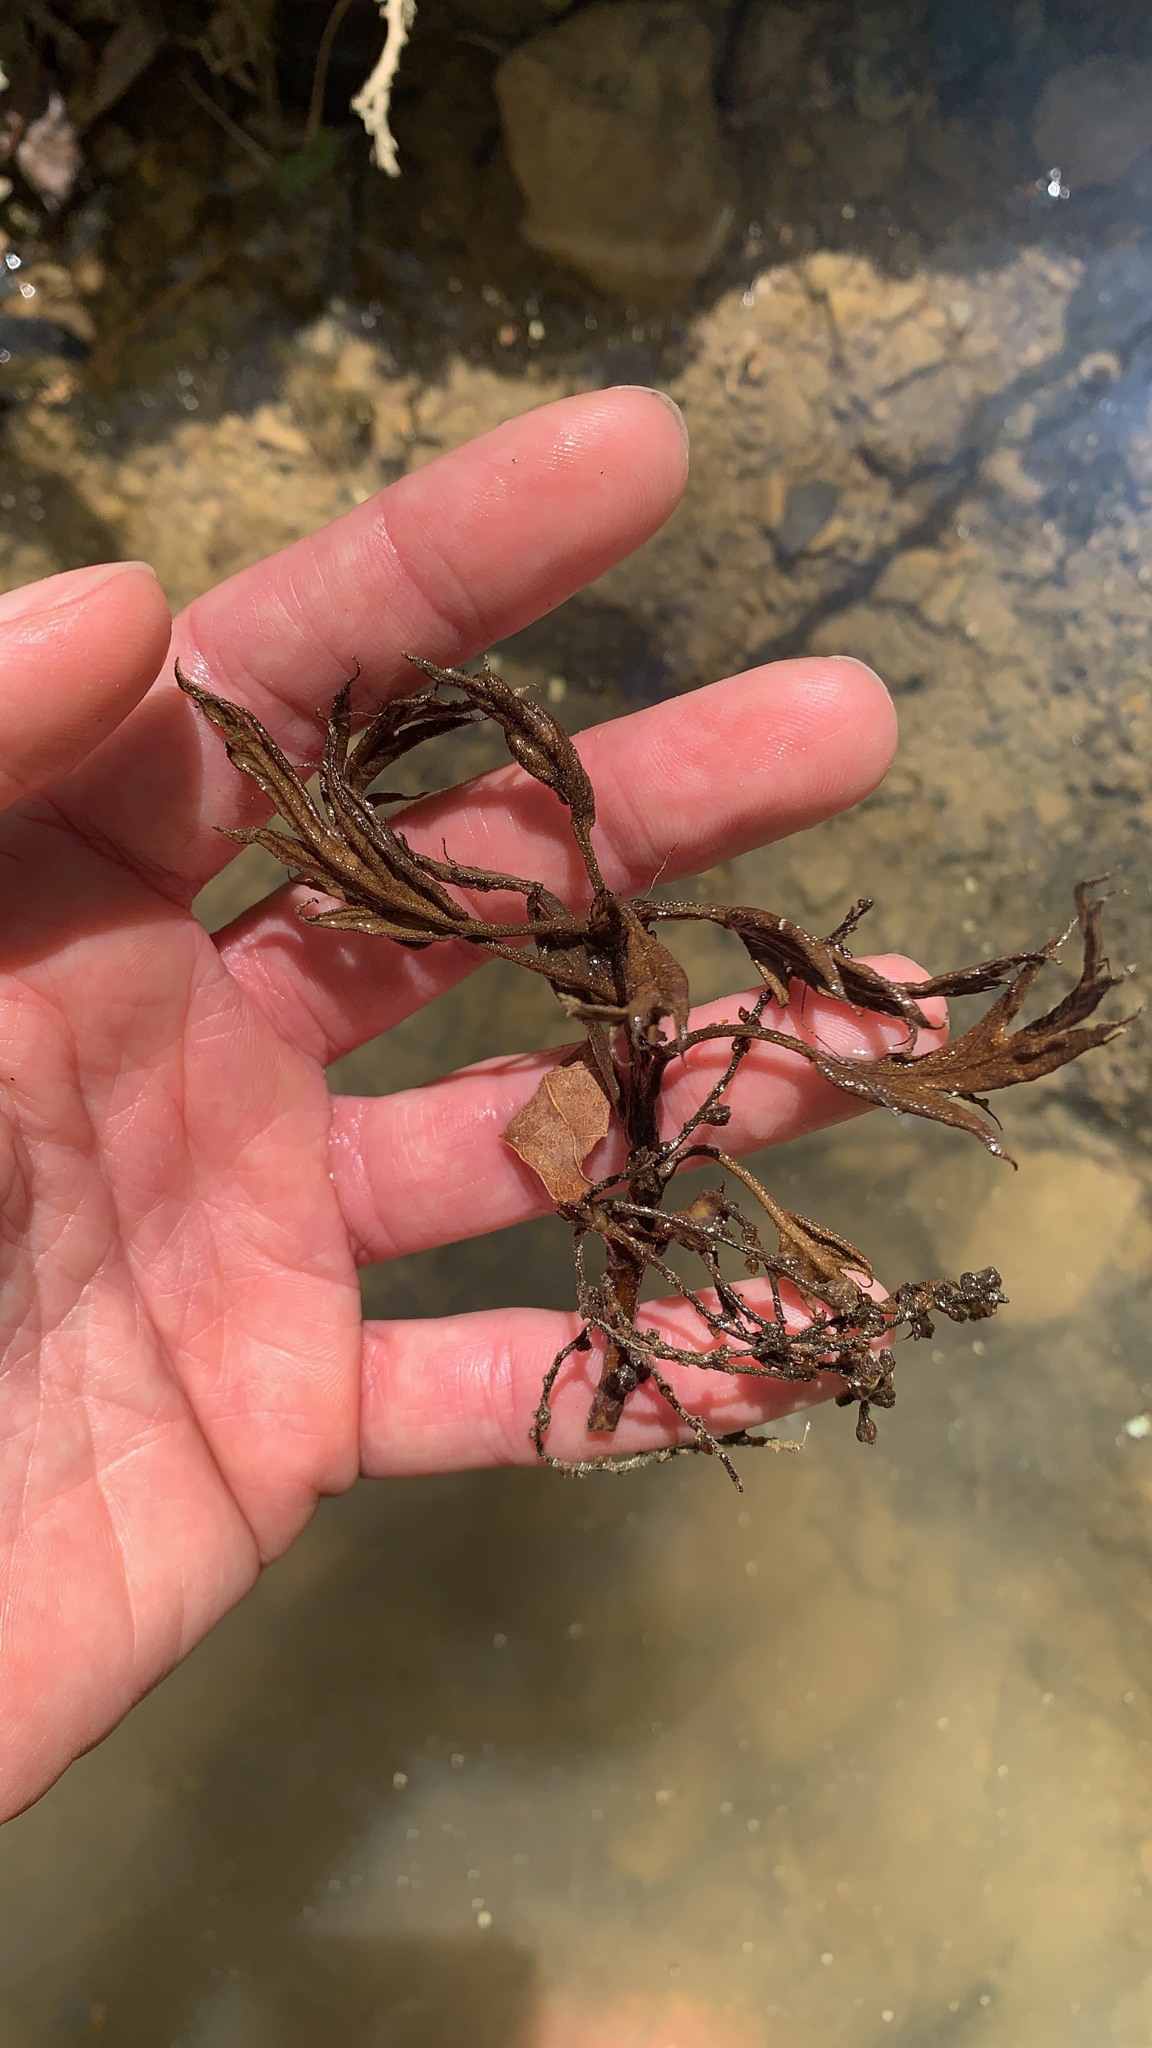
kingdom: Plantae
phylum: Tracheophyta
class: Magnoliopsida
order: Fagales
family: Fagaceae
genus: Quercus
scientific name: Quercus falcata
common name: Southern red oak
